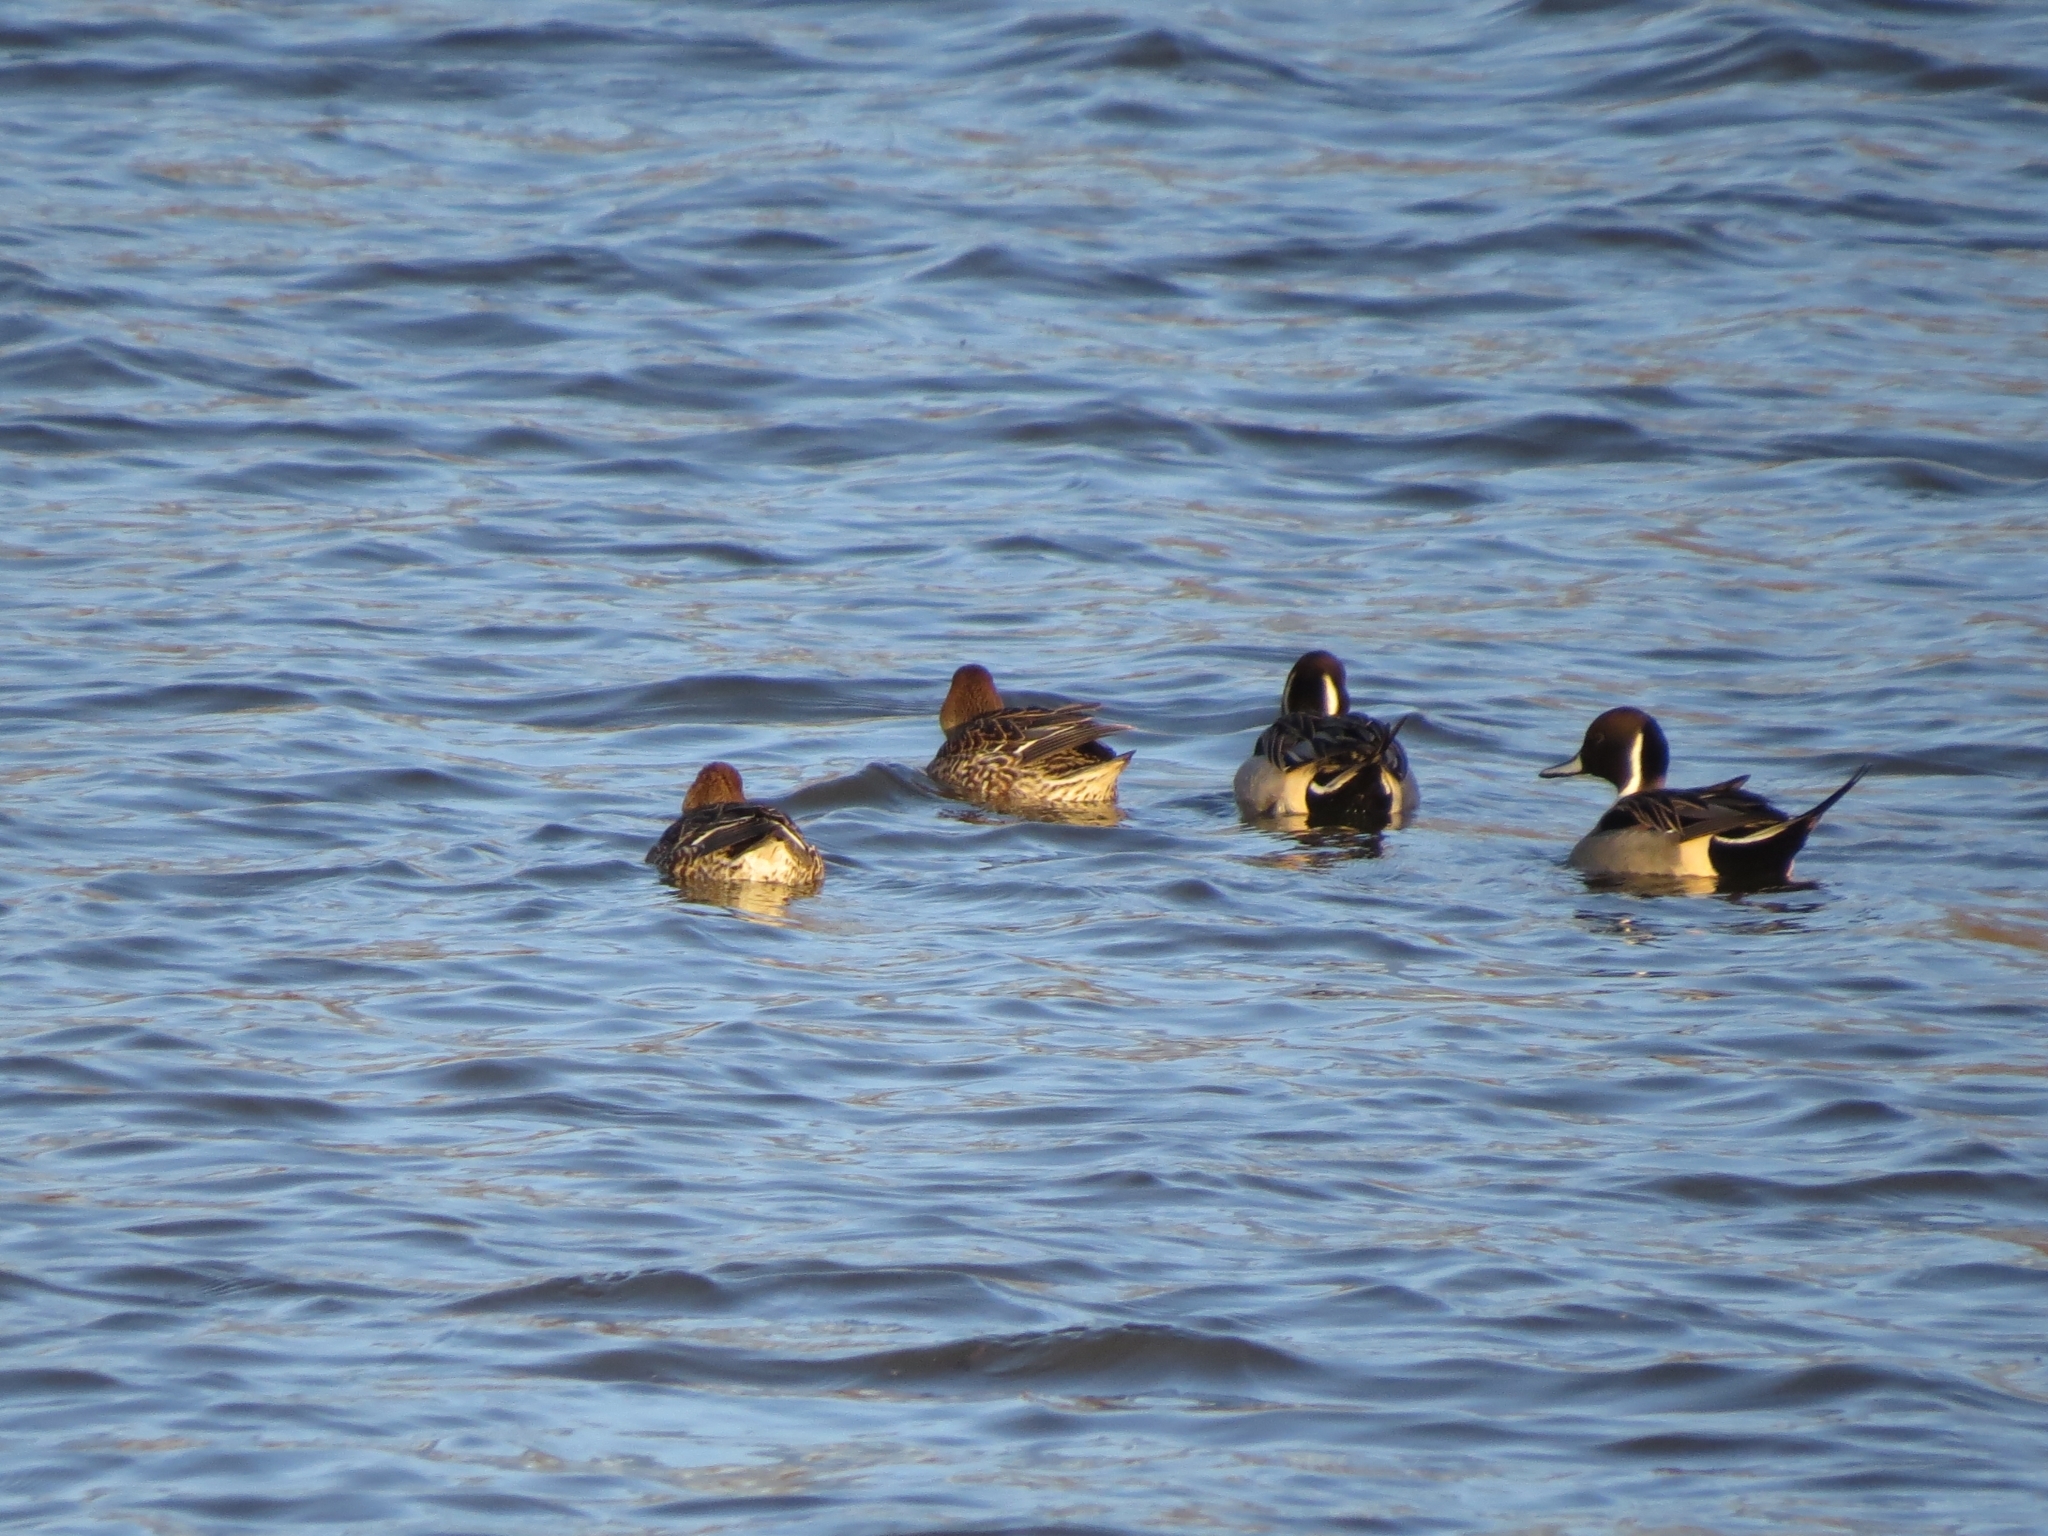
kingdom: Animalia
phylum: Chordata
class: Aves
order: Anseriformes
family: Anatidae
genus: Anas
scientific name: Anas acuta
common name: Northern pintail
